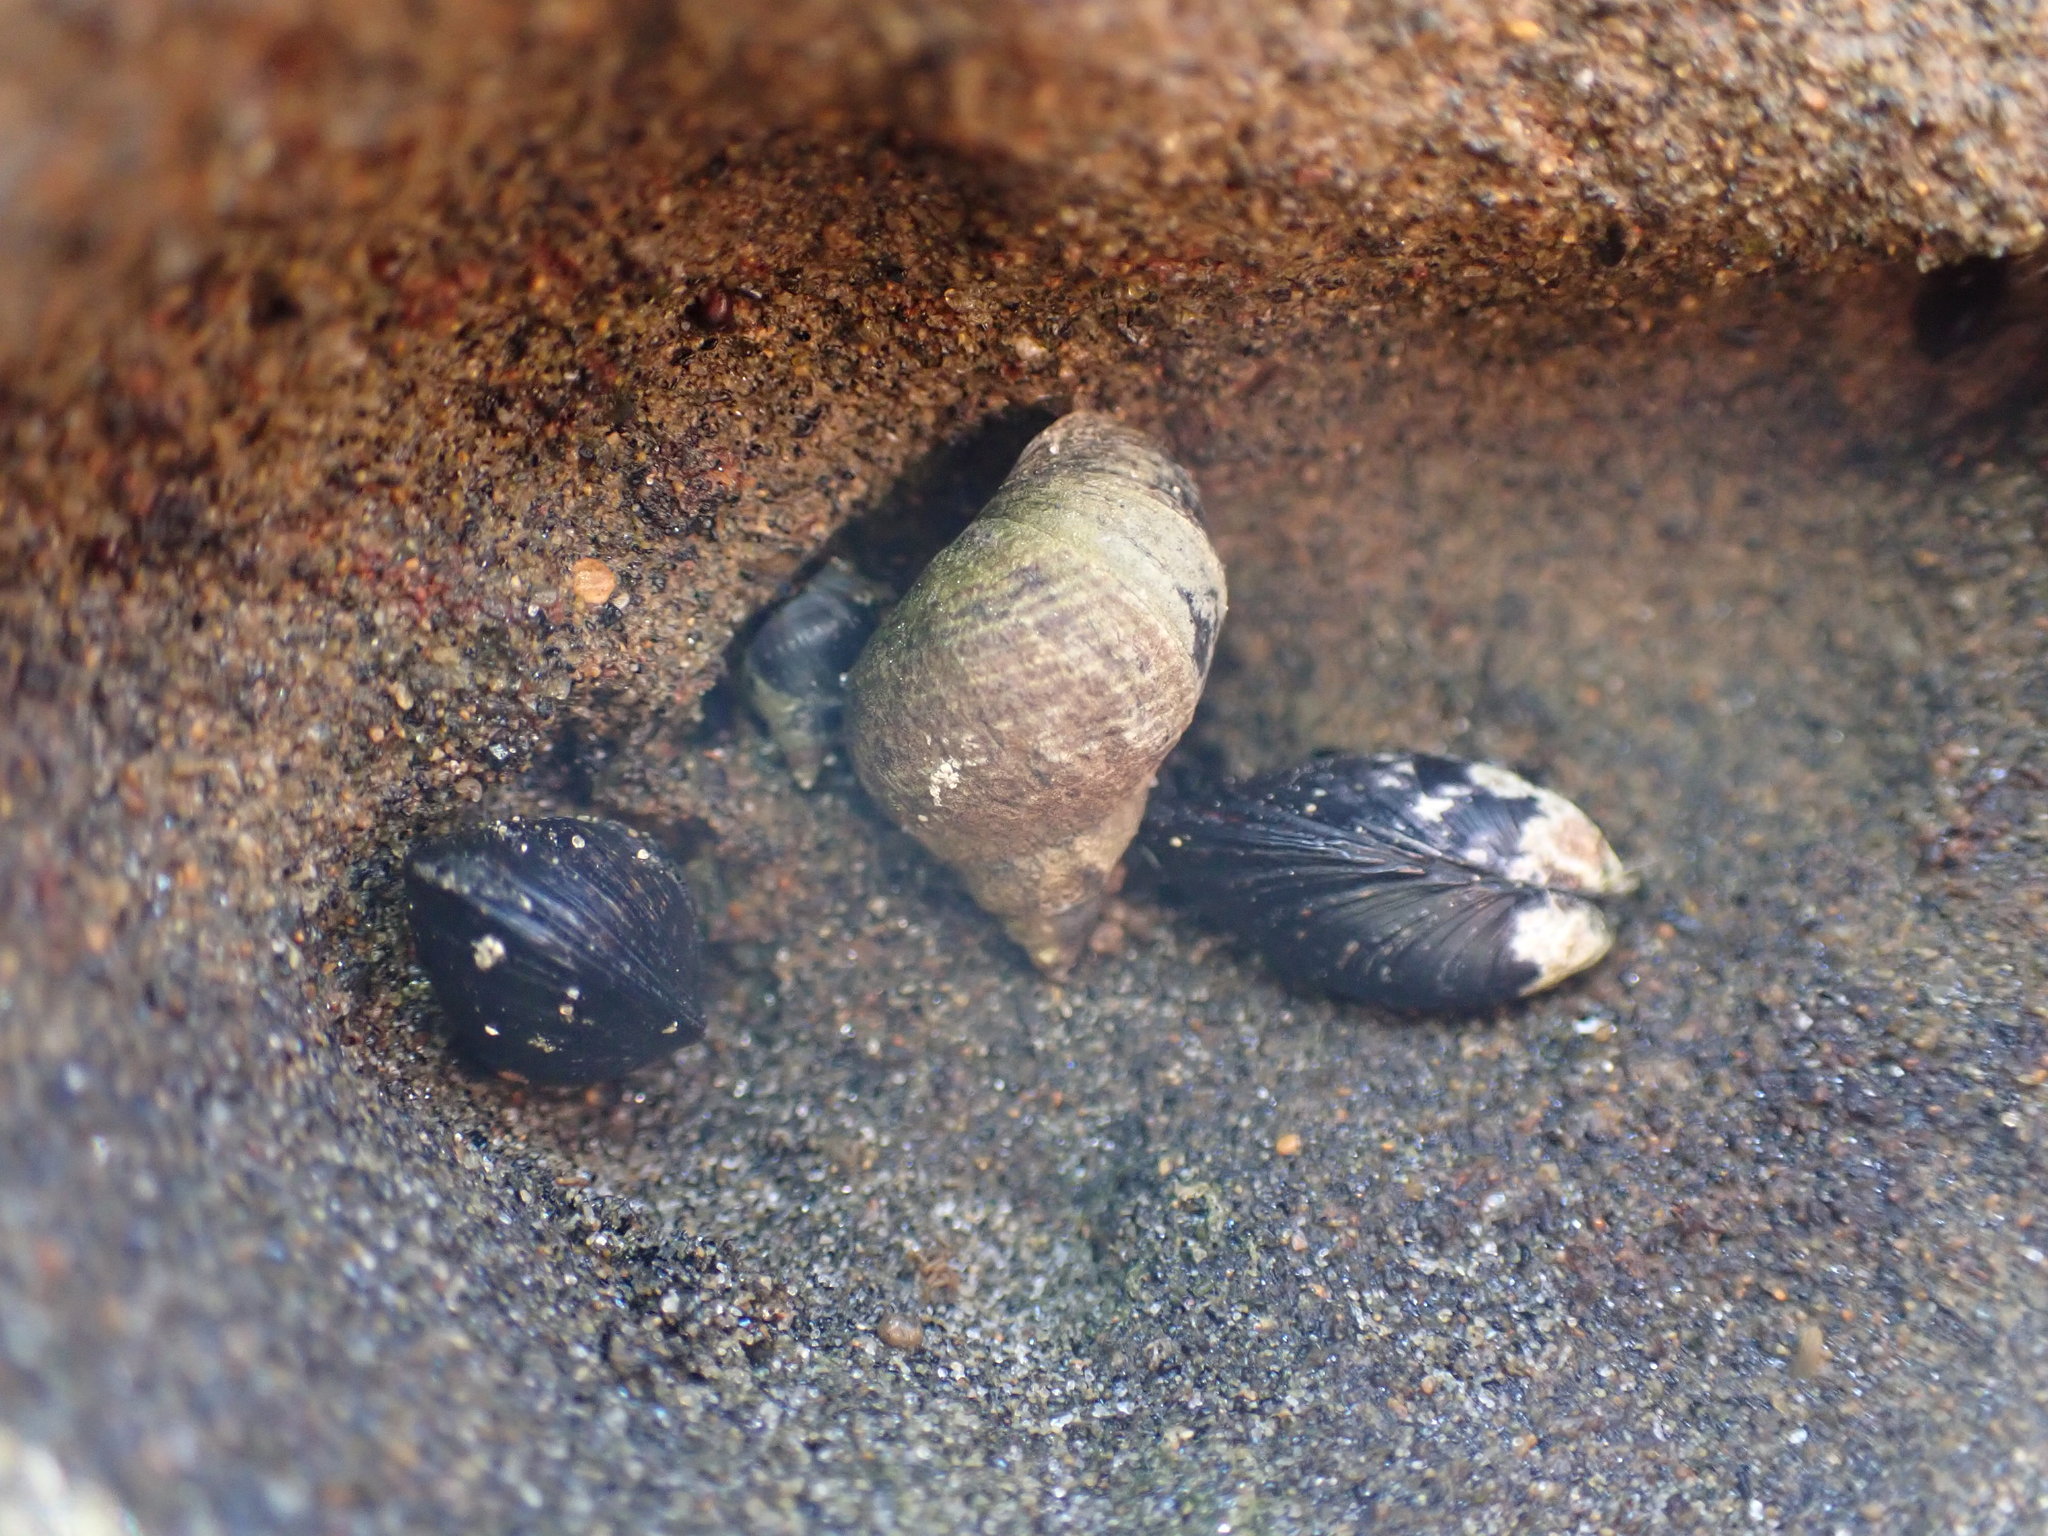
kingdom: Animalia
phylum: Mollusca
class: Gastropoda
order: Littorinimorpha
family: Littorinidae
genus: Austrolittorina
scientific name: Austrolittorina cincta
